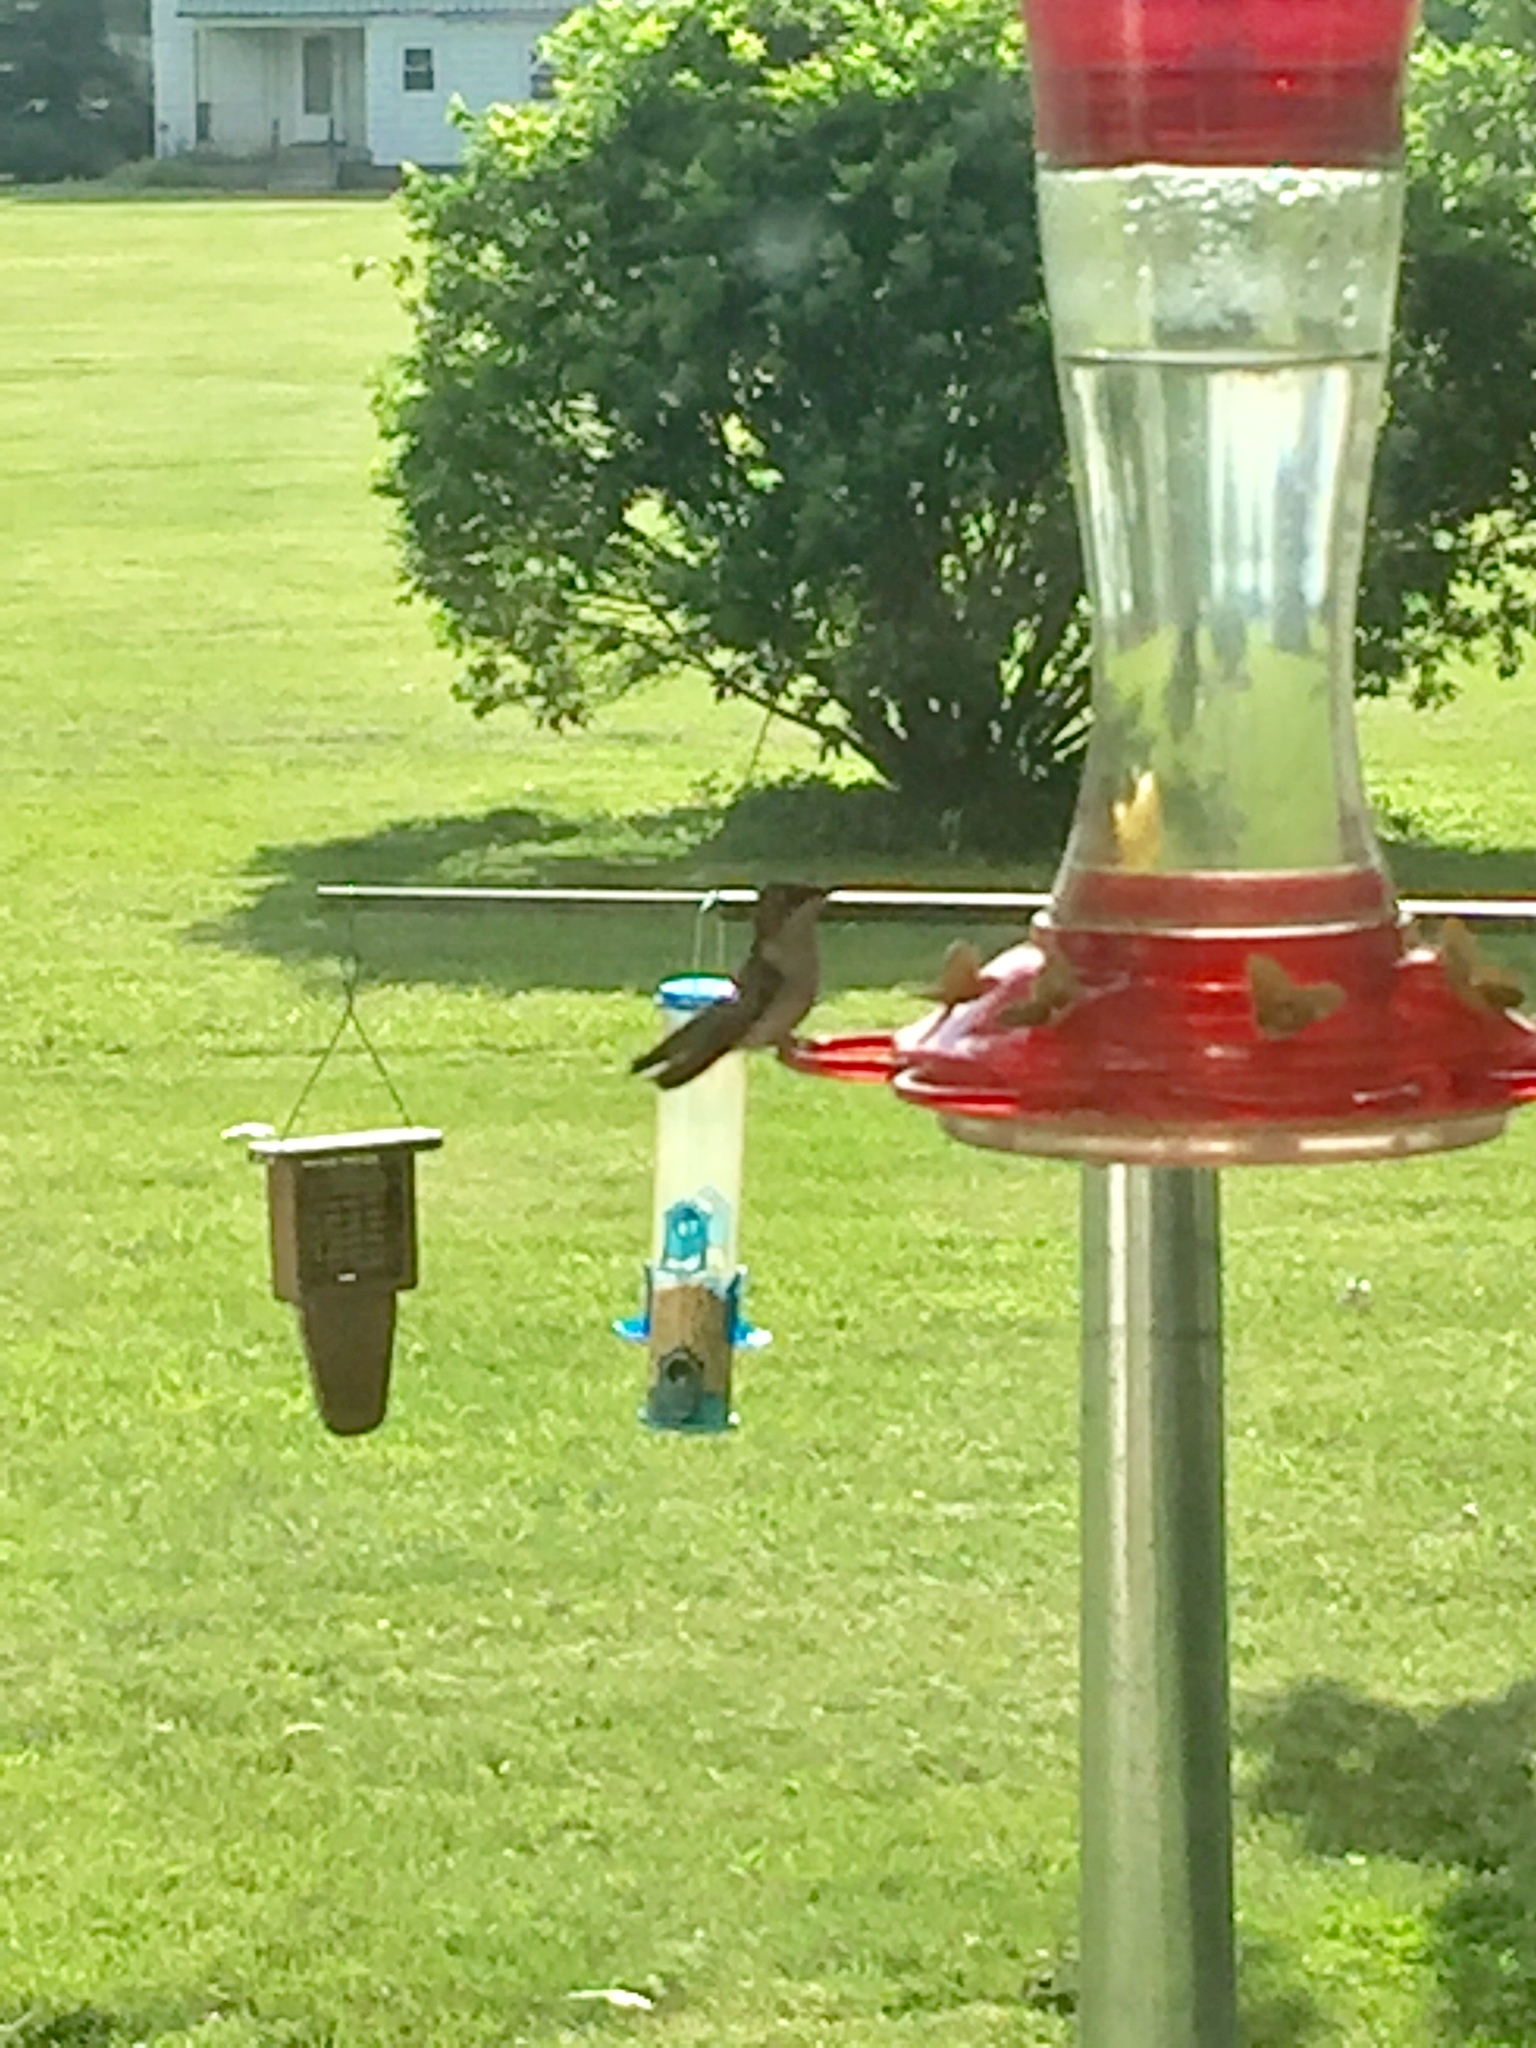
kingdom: Animalia
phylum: Chordata
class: Aves
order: Apodiformes
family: Trochilidae
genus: Archilochus
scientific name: Archilochus colubris
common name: Ruby-throated hummingbird
